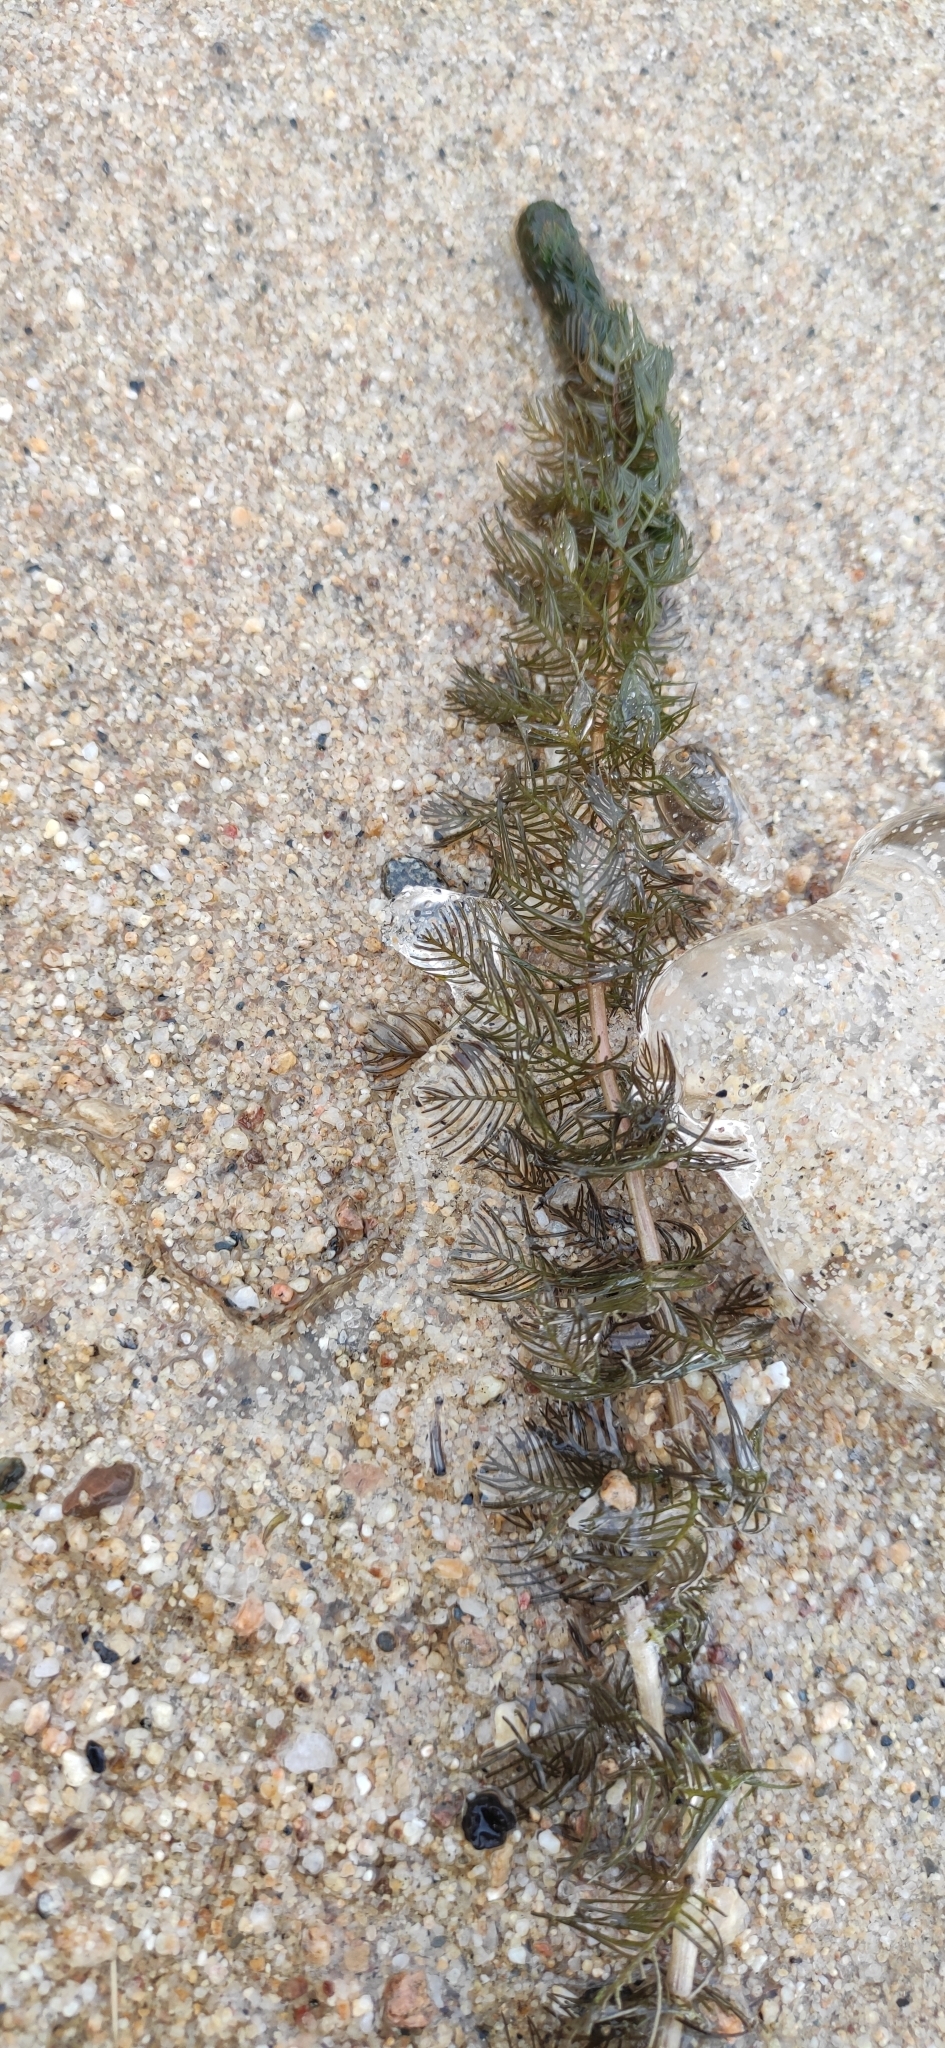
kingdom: Plantae
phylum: Tracheophyta
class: Magnoliopsida
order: Saxifragales
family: Haloragaceae
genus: Myriophyllum
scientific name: Myriophyllum sibiricum
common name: Siberian water-milfoil
